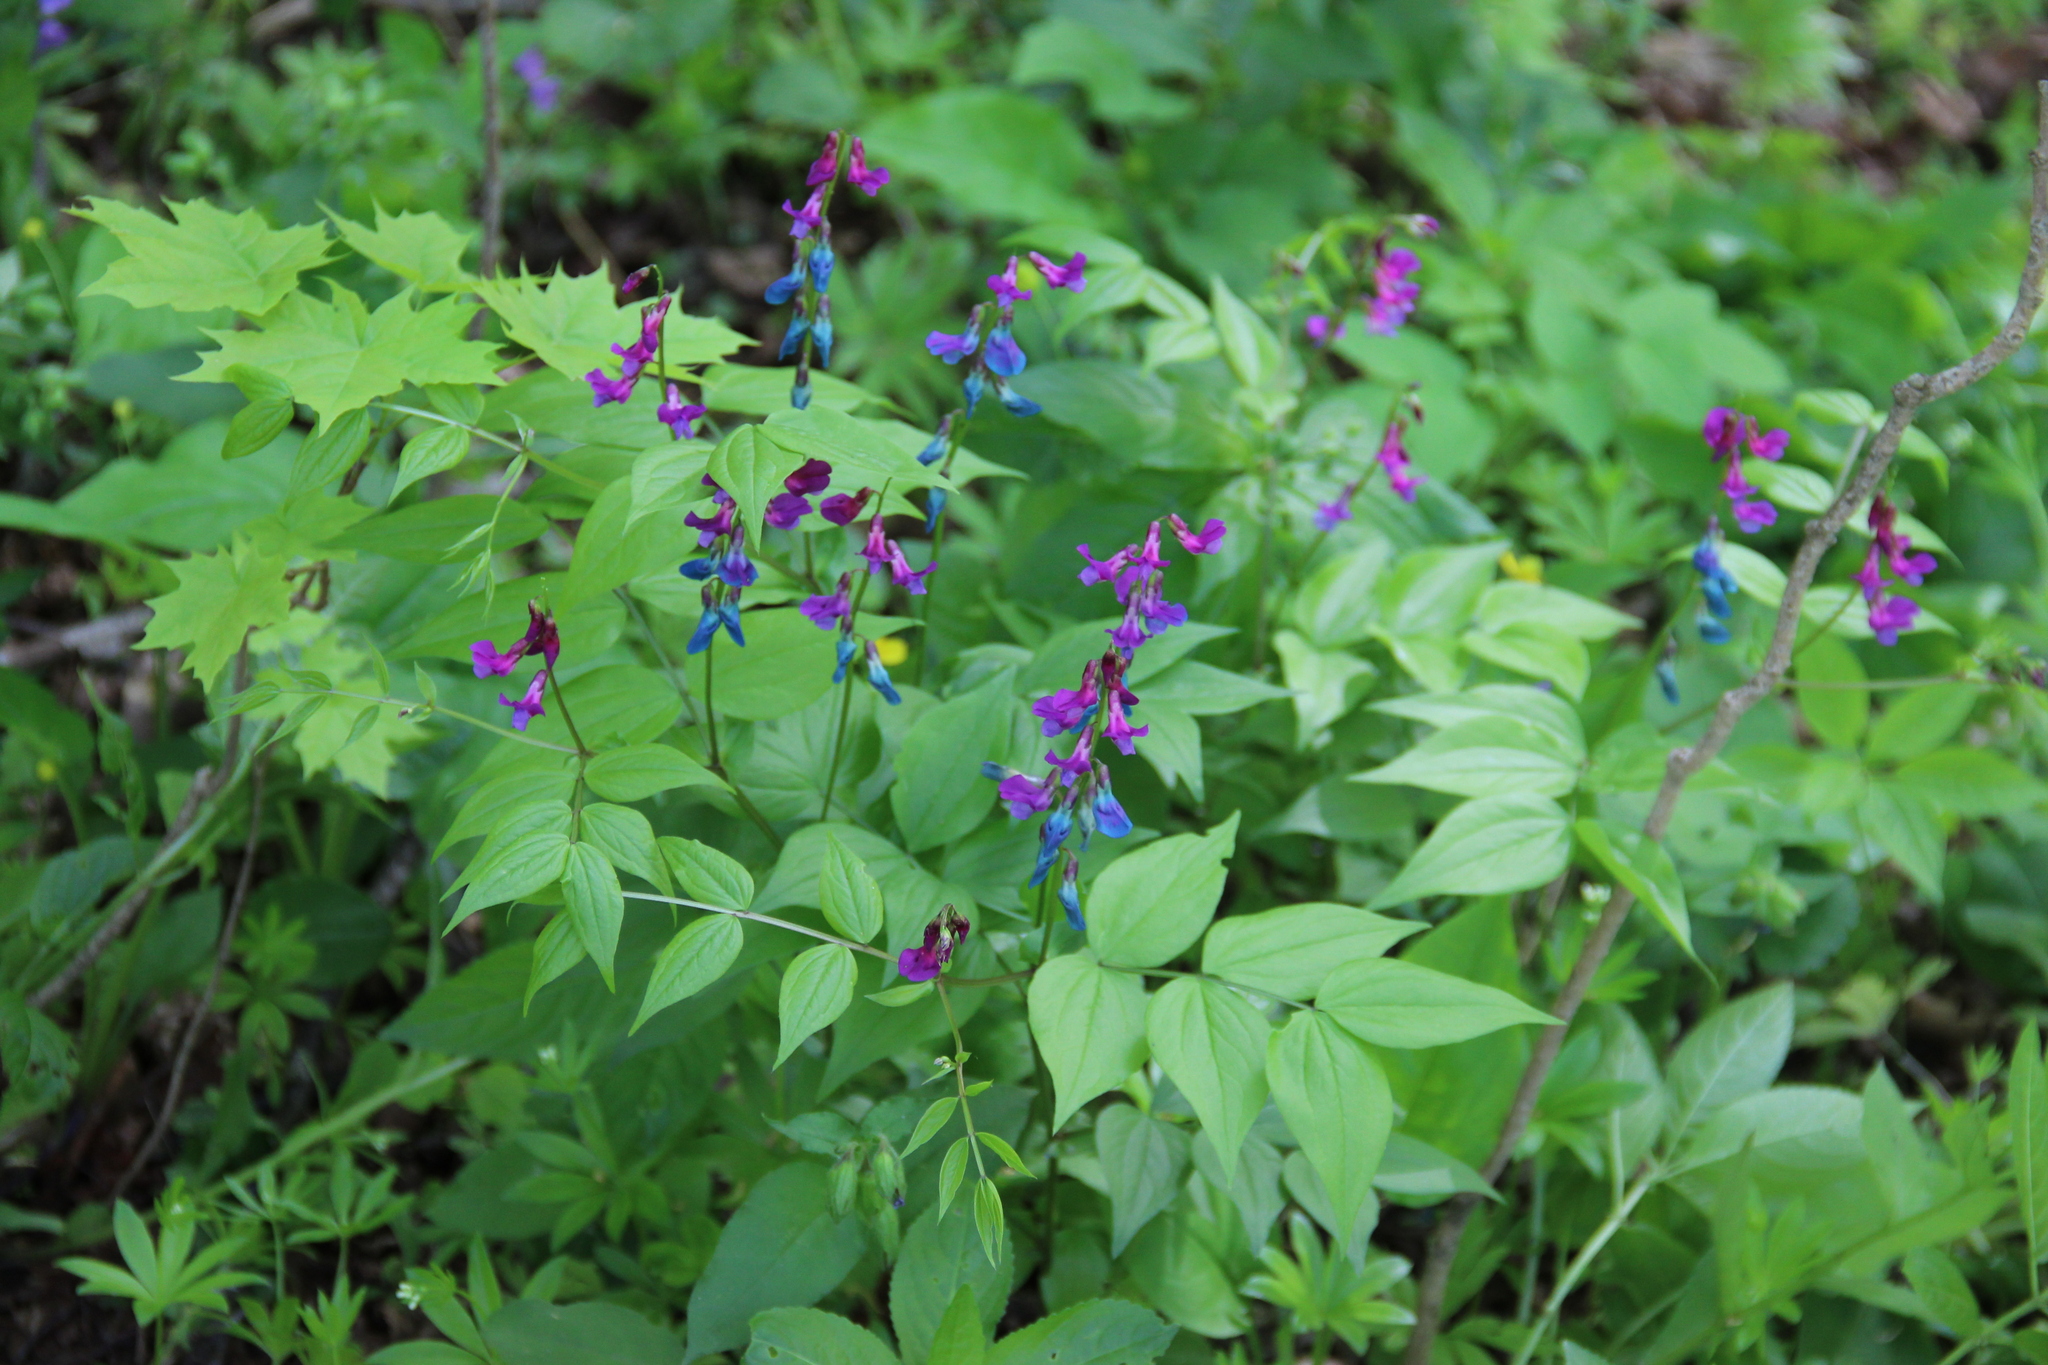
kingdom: Plantae
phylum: Tracheophyta
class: Magnoliopsida
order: Fabales
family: Fabaceae
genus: Lathyrus
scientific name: Lathyrus vernus
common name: Spring pea
